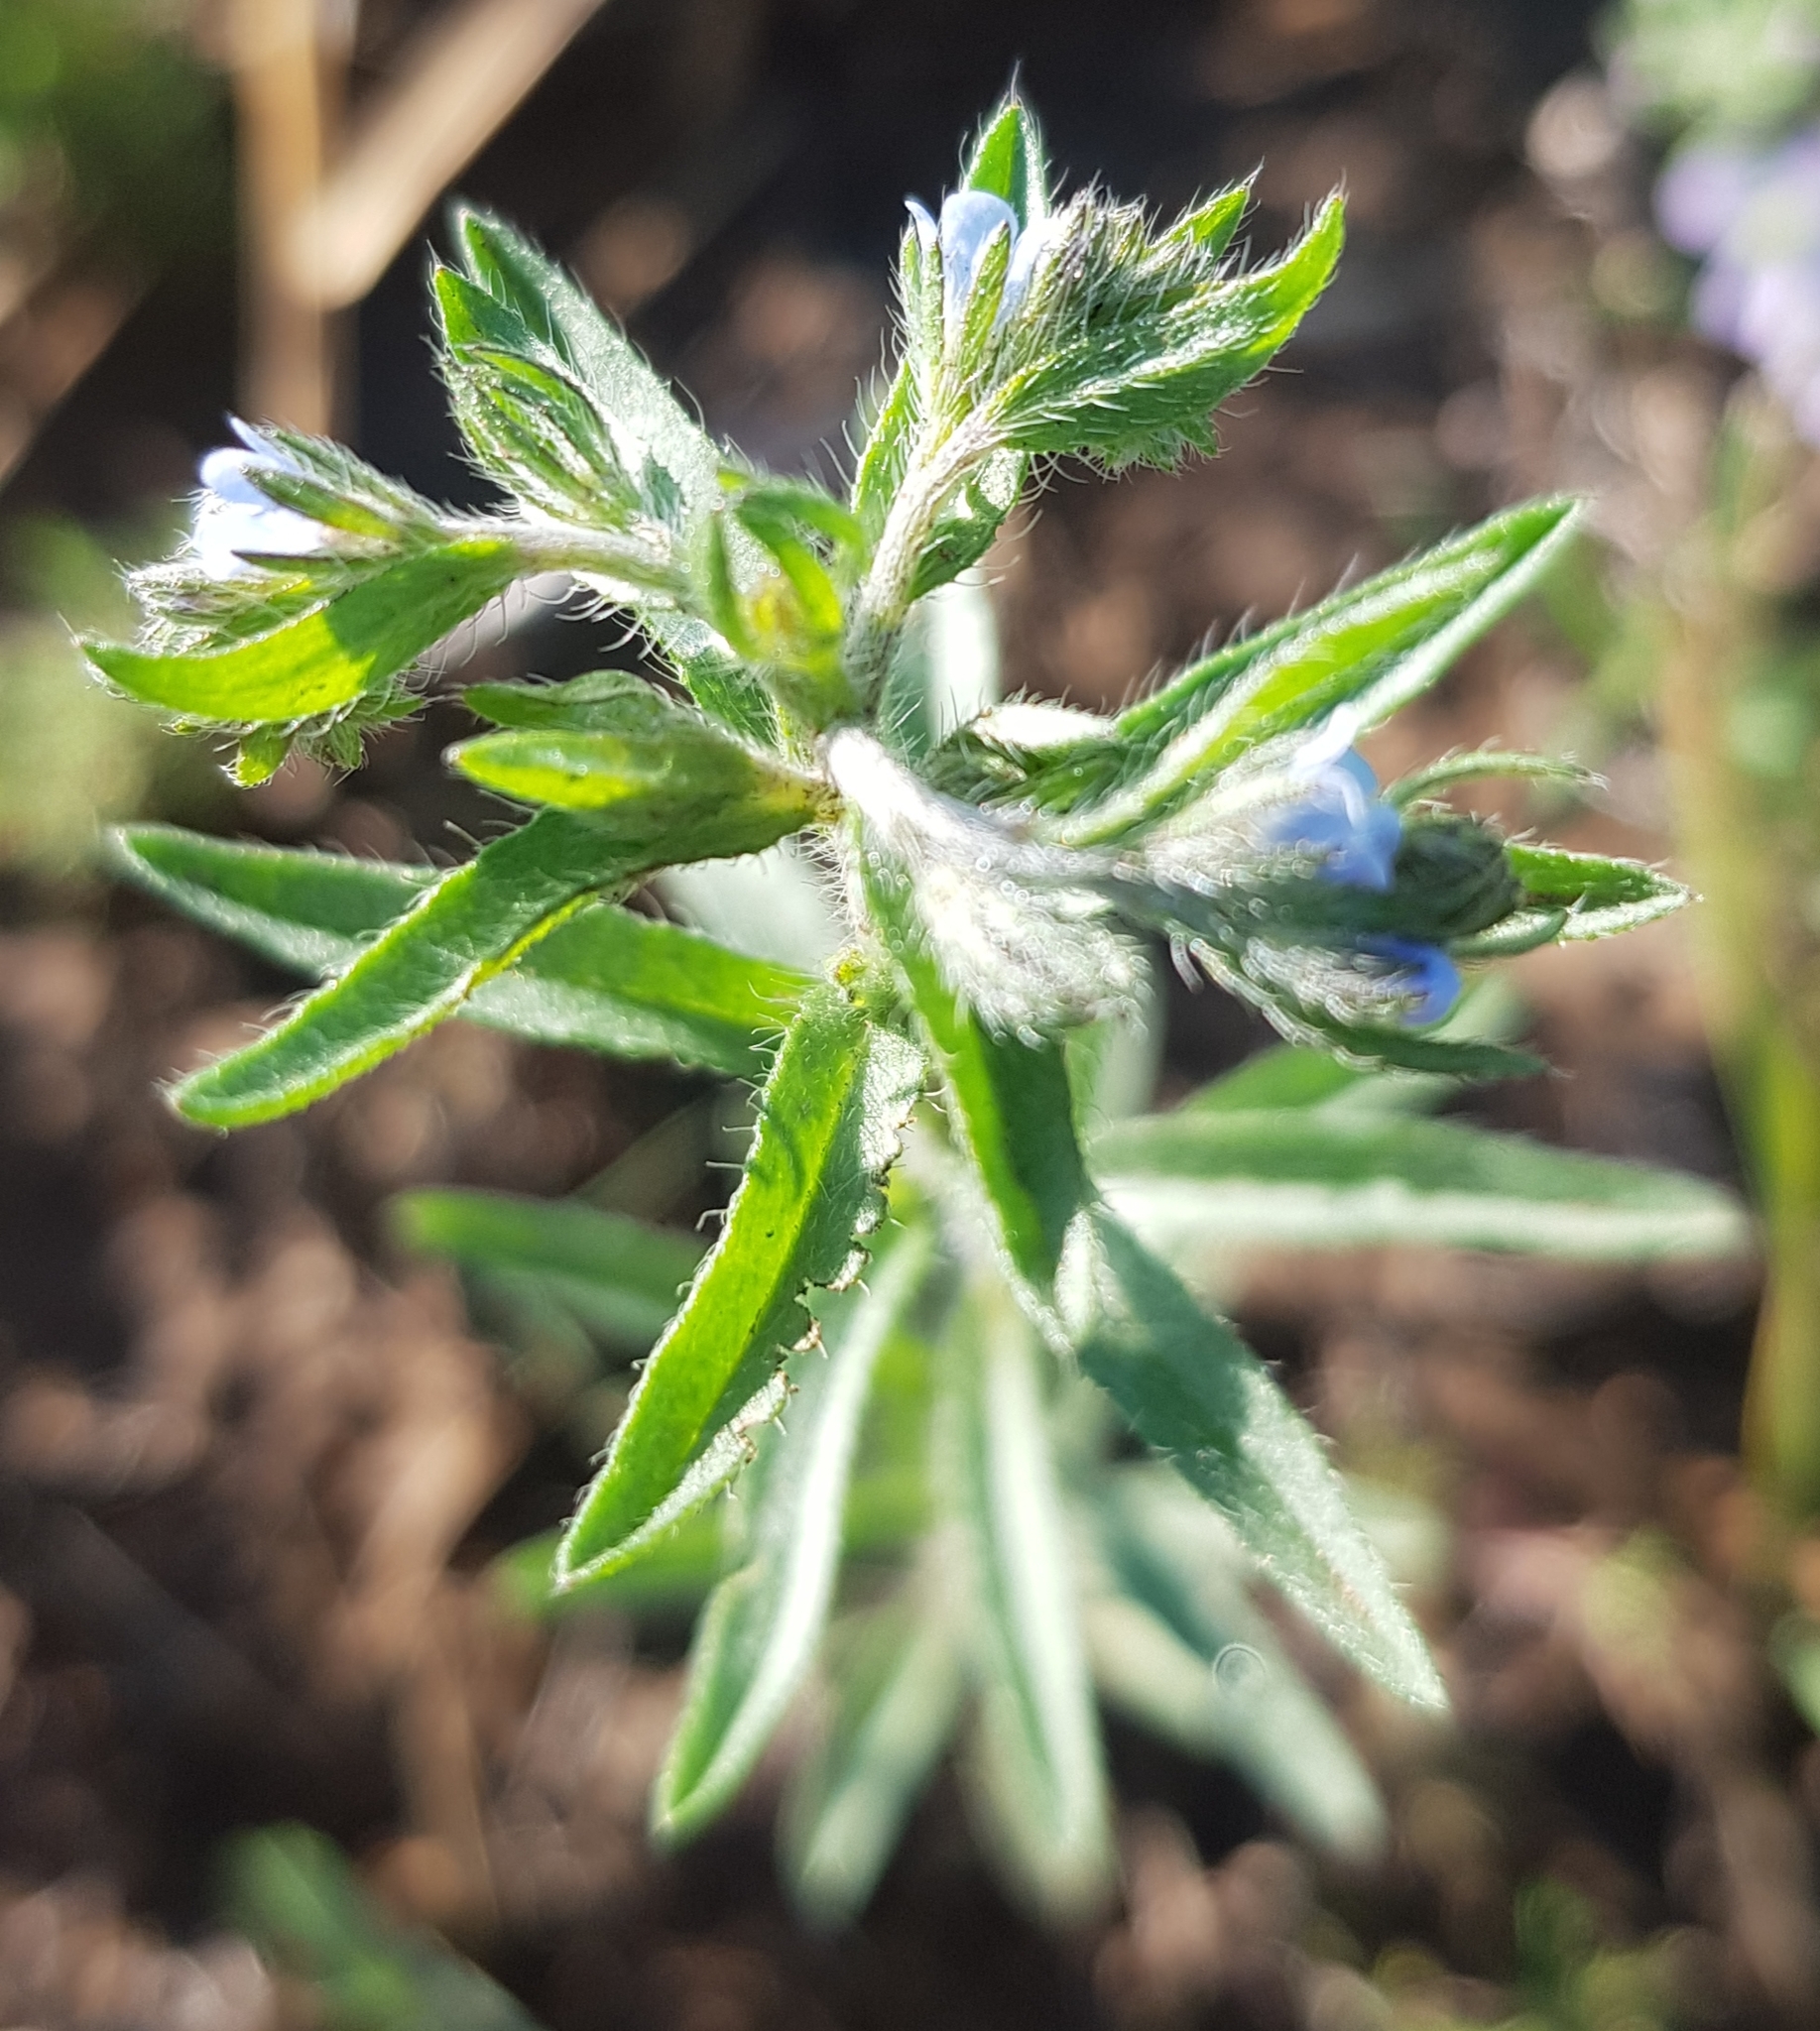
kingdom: Plantae
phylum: Tracheophyta
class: Magnoliopsida
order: Boraginales
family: Boraginaceae
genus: Lappula
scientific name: Lappula squarrosa
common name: European stickseed
